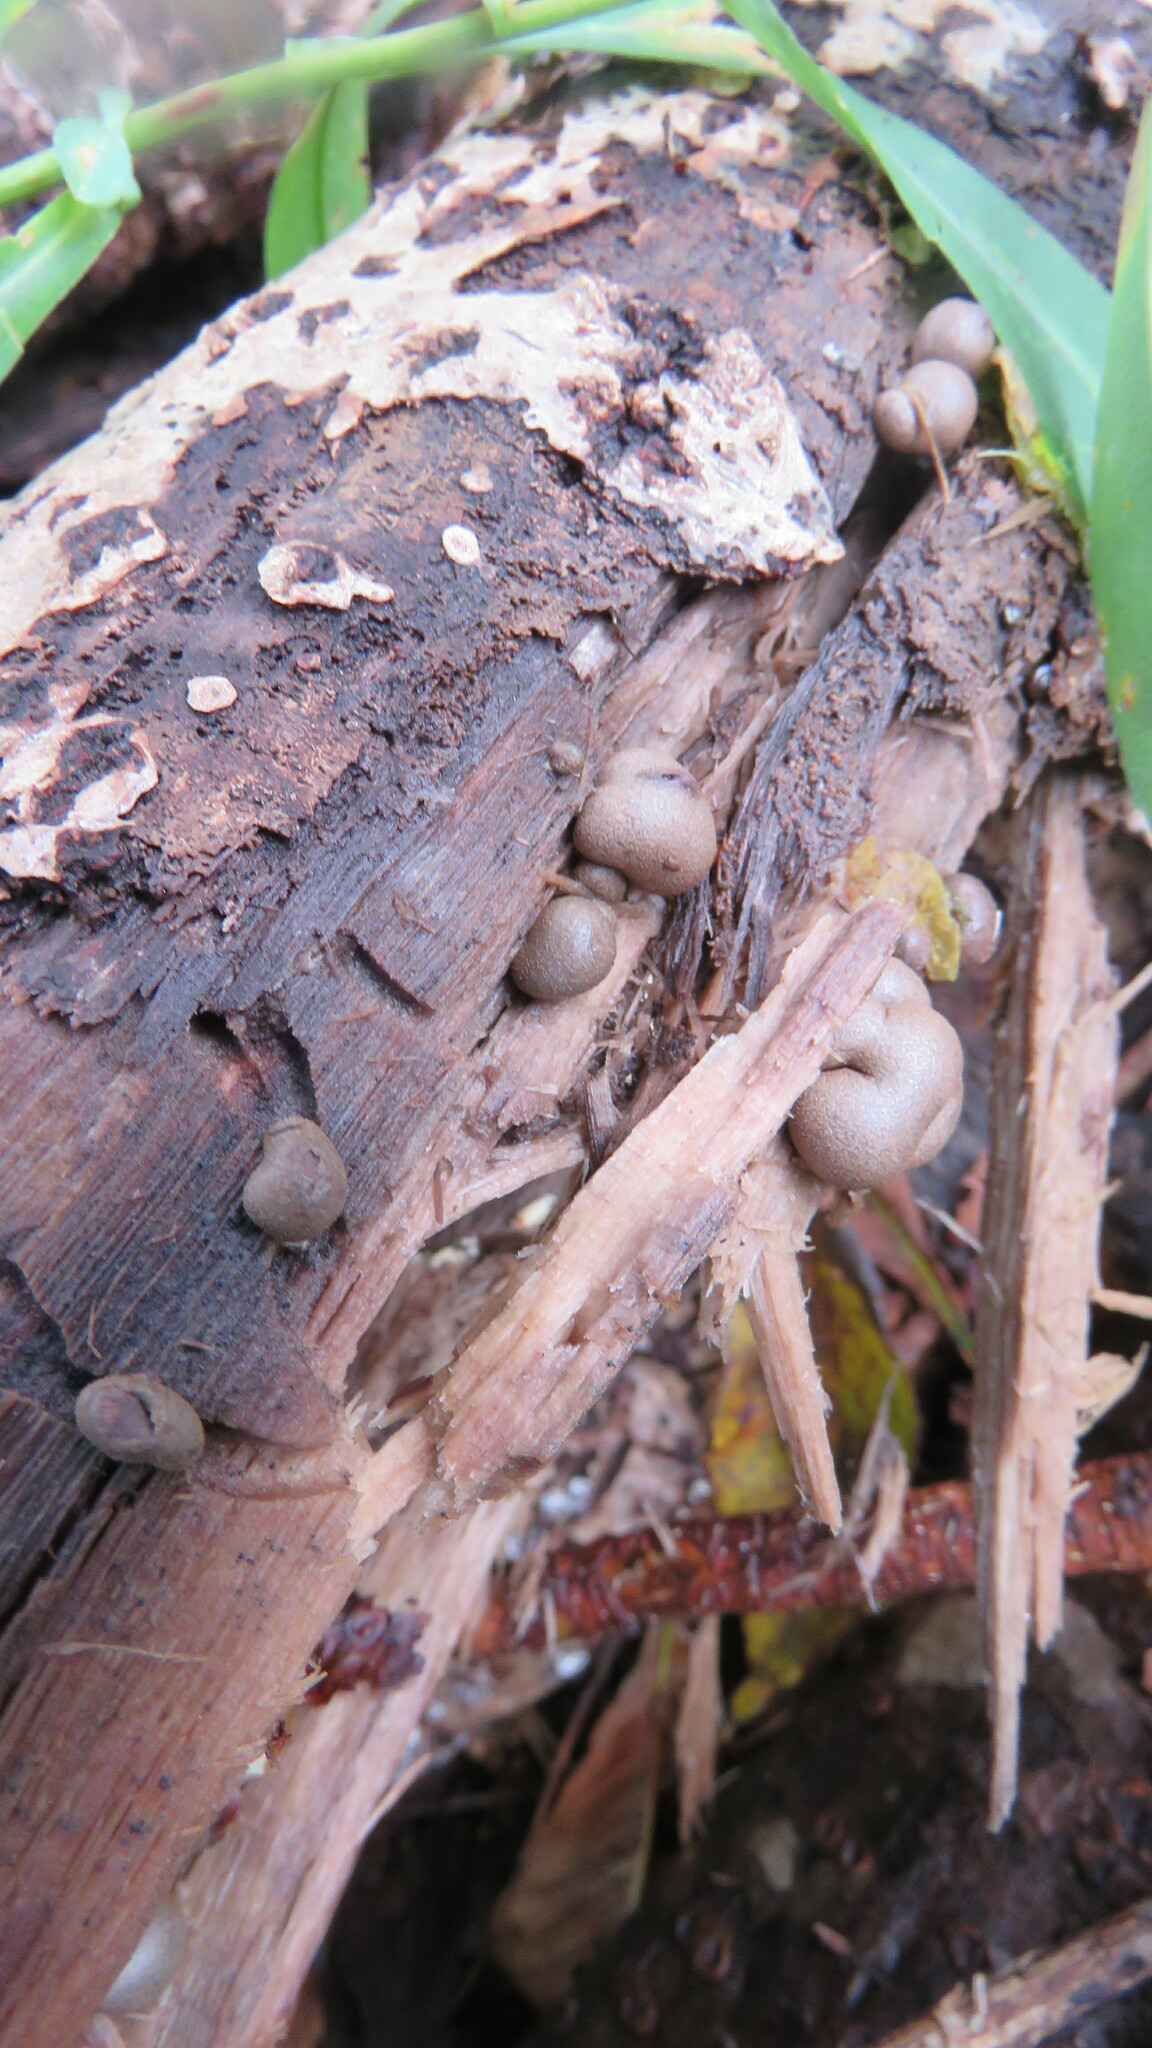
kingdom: Protozoa
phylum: Mycetozoa
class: Myxomycetes
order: Cribrariales
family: Tubiferaceae
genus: Lycogala
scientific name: Lycogala epidendrum
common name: Wolf's milk
